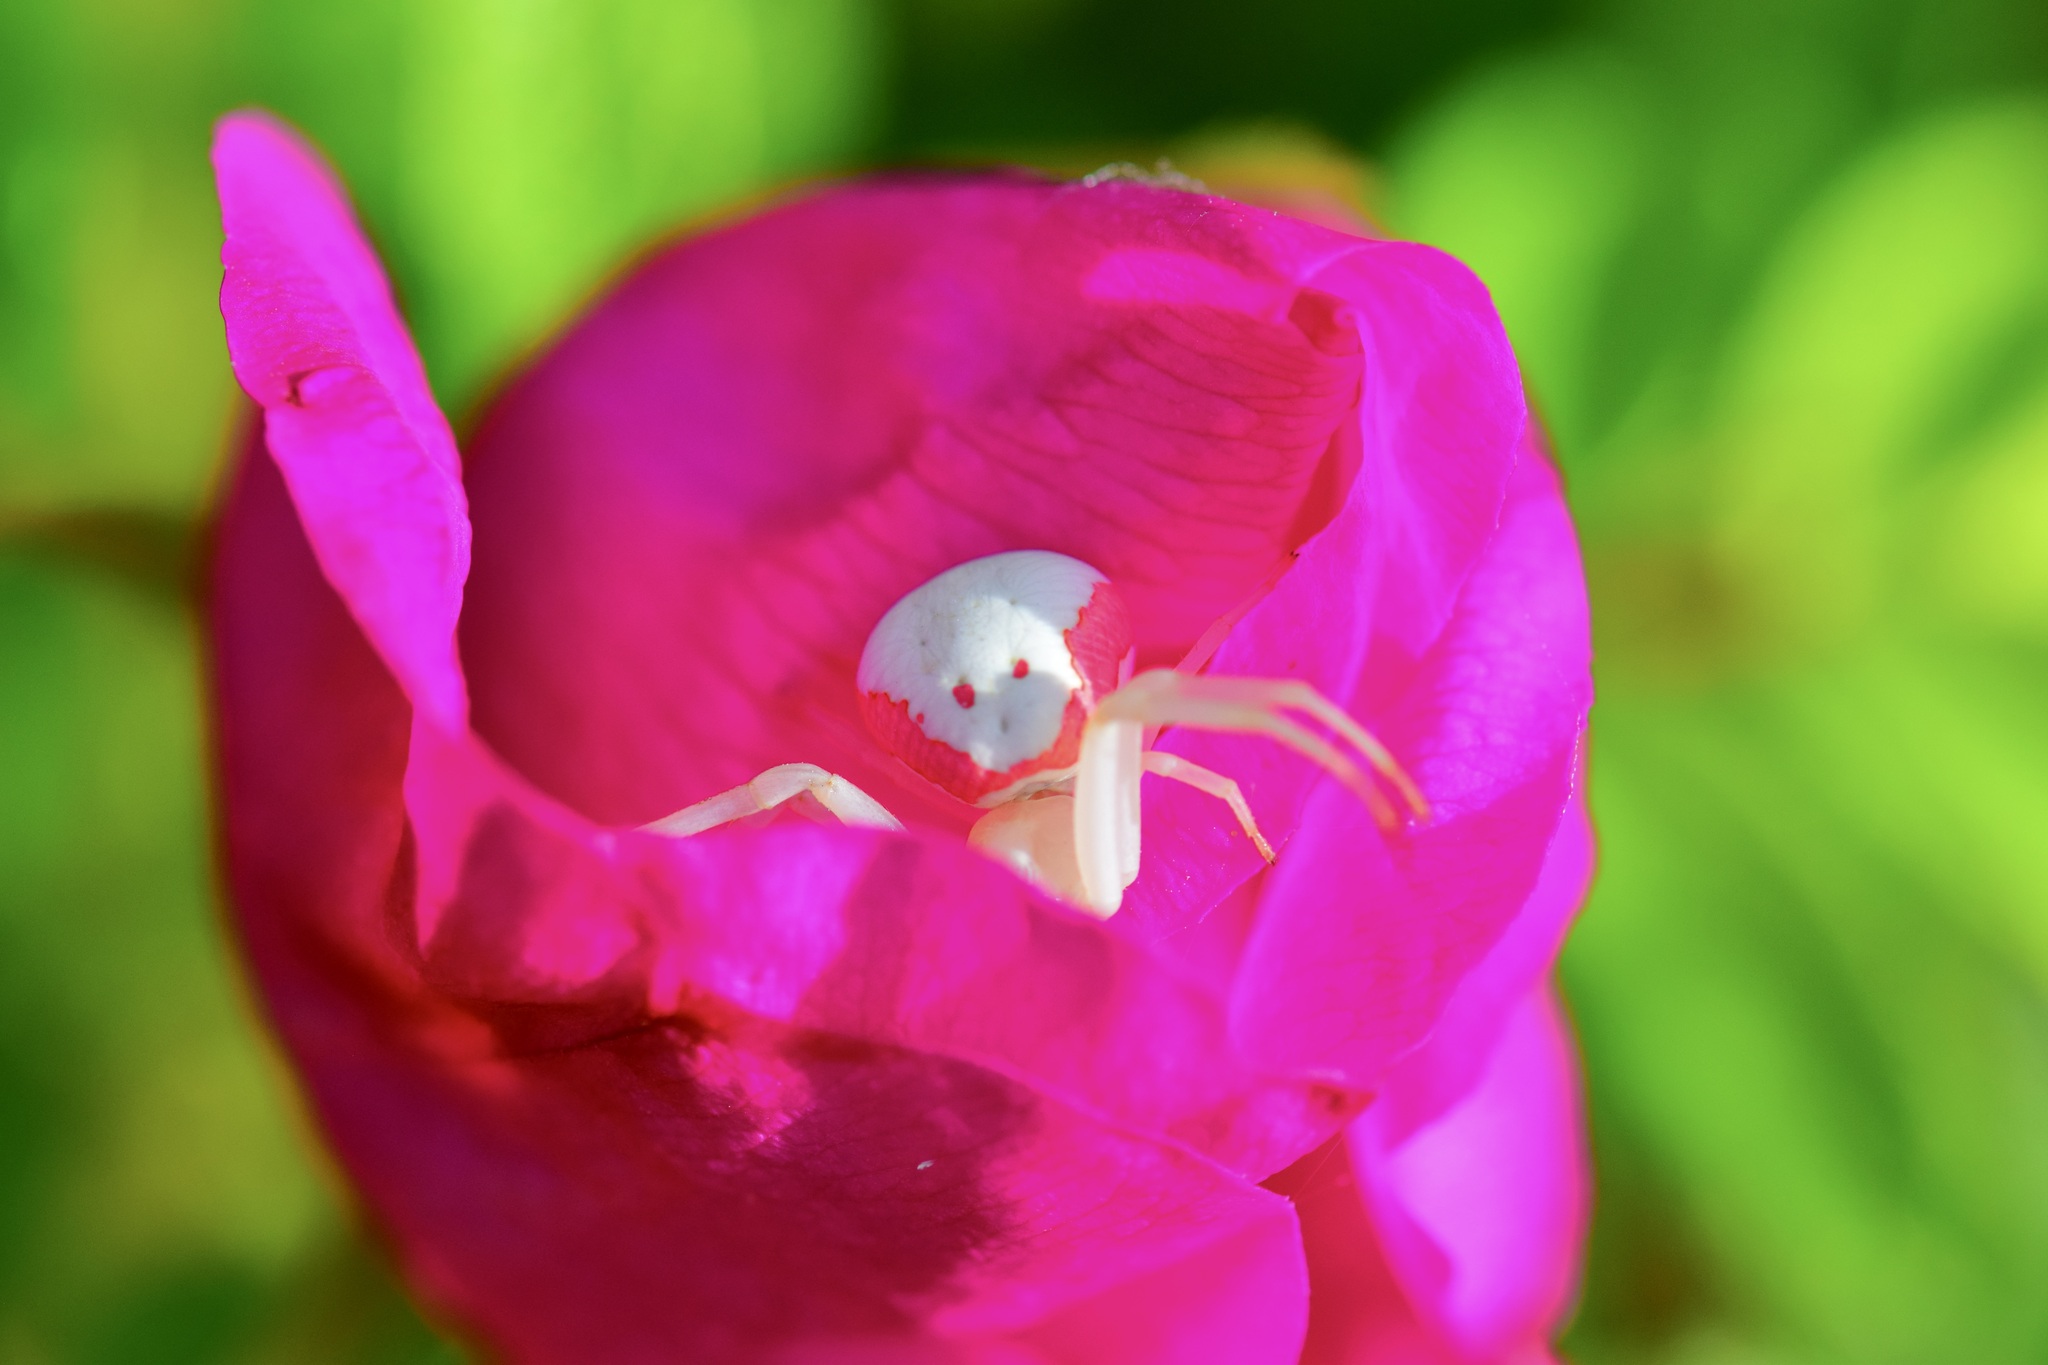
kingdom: Animalia
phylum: Arthropoda
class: Arachnida
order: Araneae
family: Thomisidae
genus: Misumena
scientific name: Misumena vatia
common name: Goldenrod crab spider
